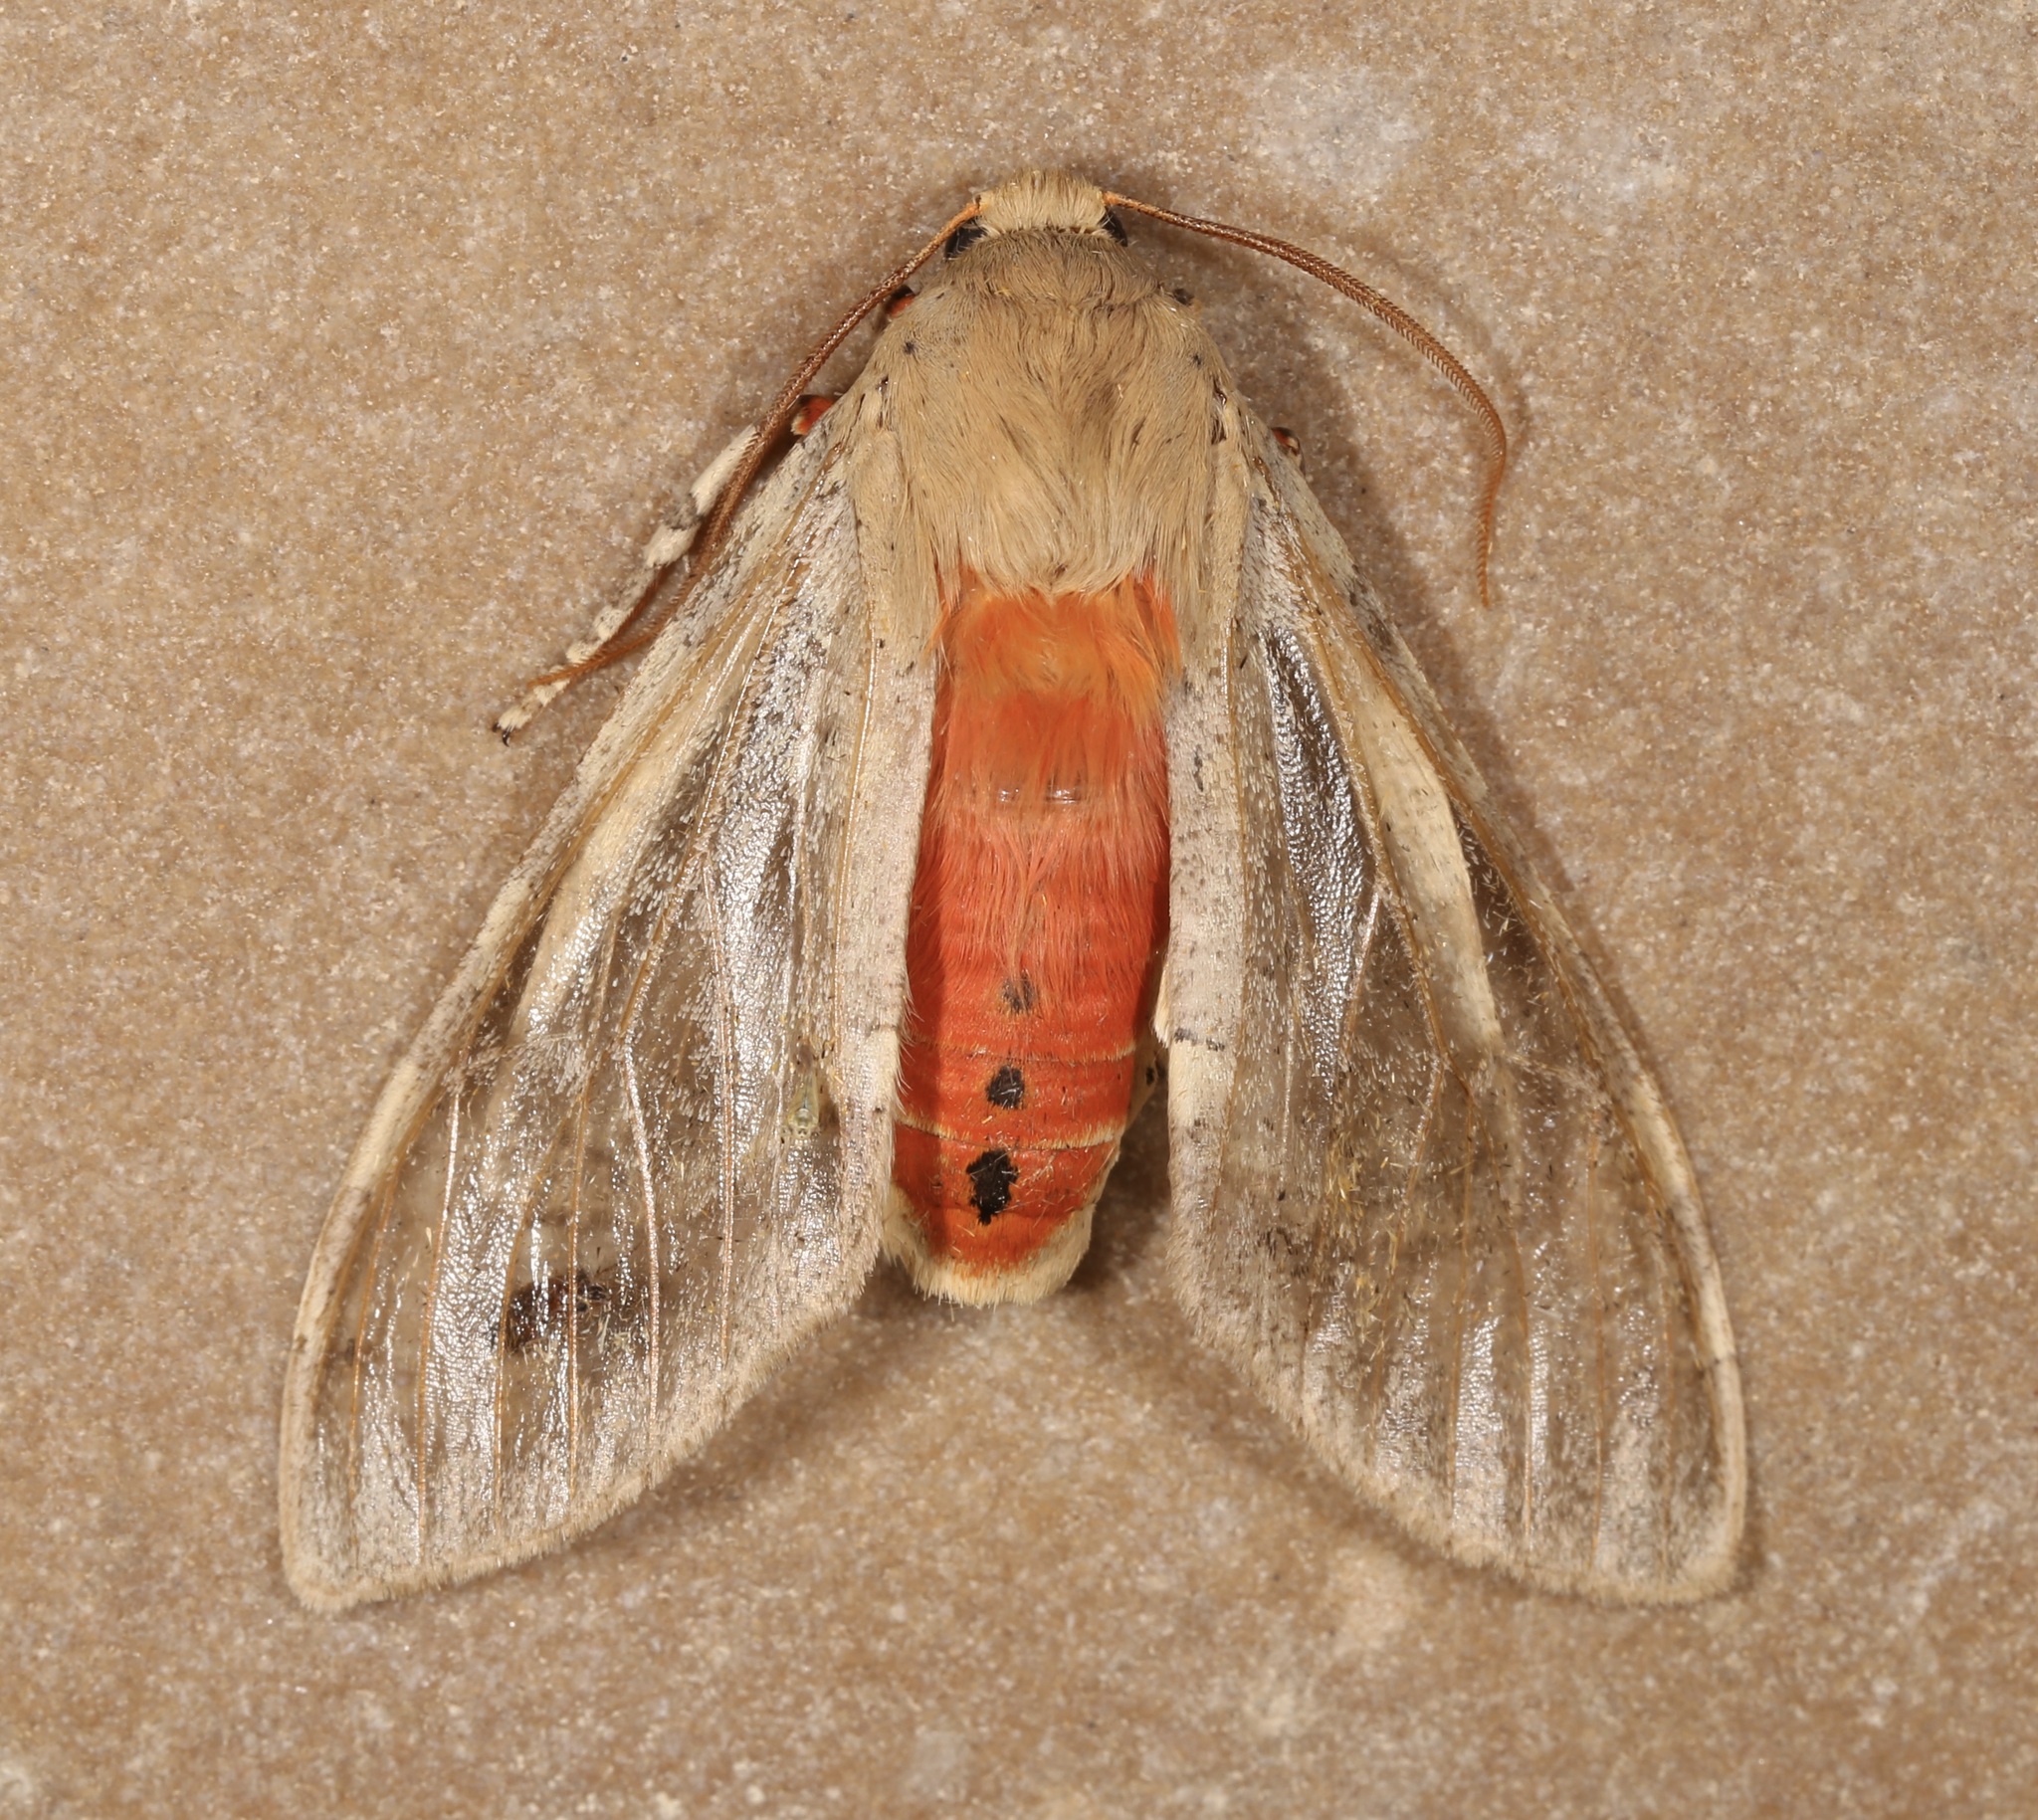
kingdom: Animalia
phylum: Arthropoda
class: Insecta
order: Lepidoptera
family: Erebidae
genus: Hemihyalea
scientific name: Hemihyalea edwardsii
